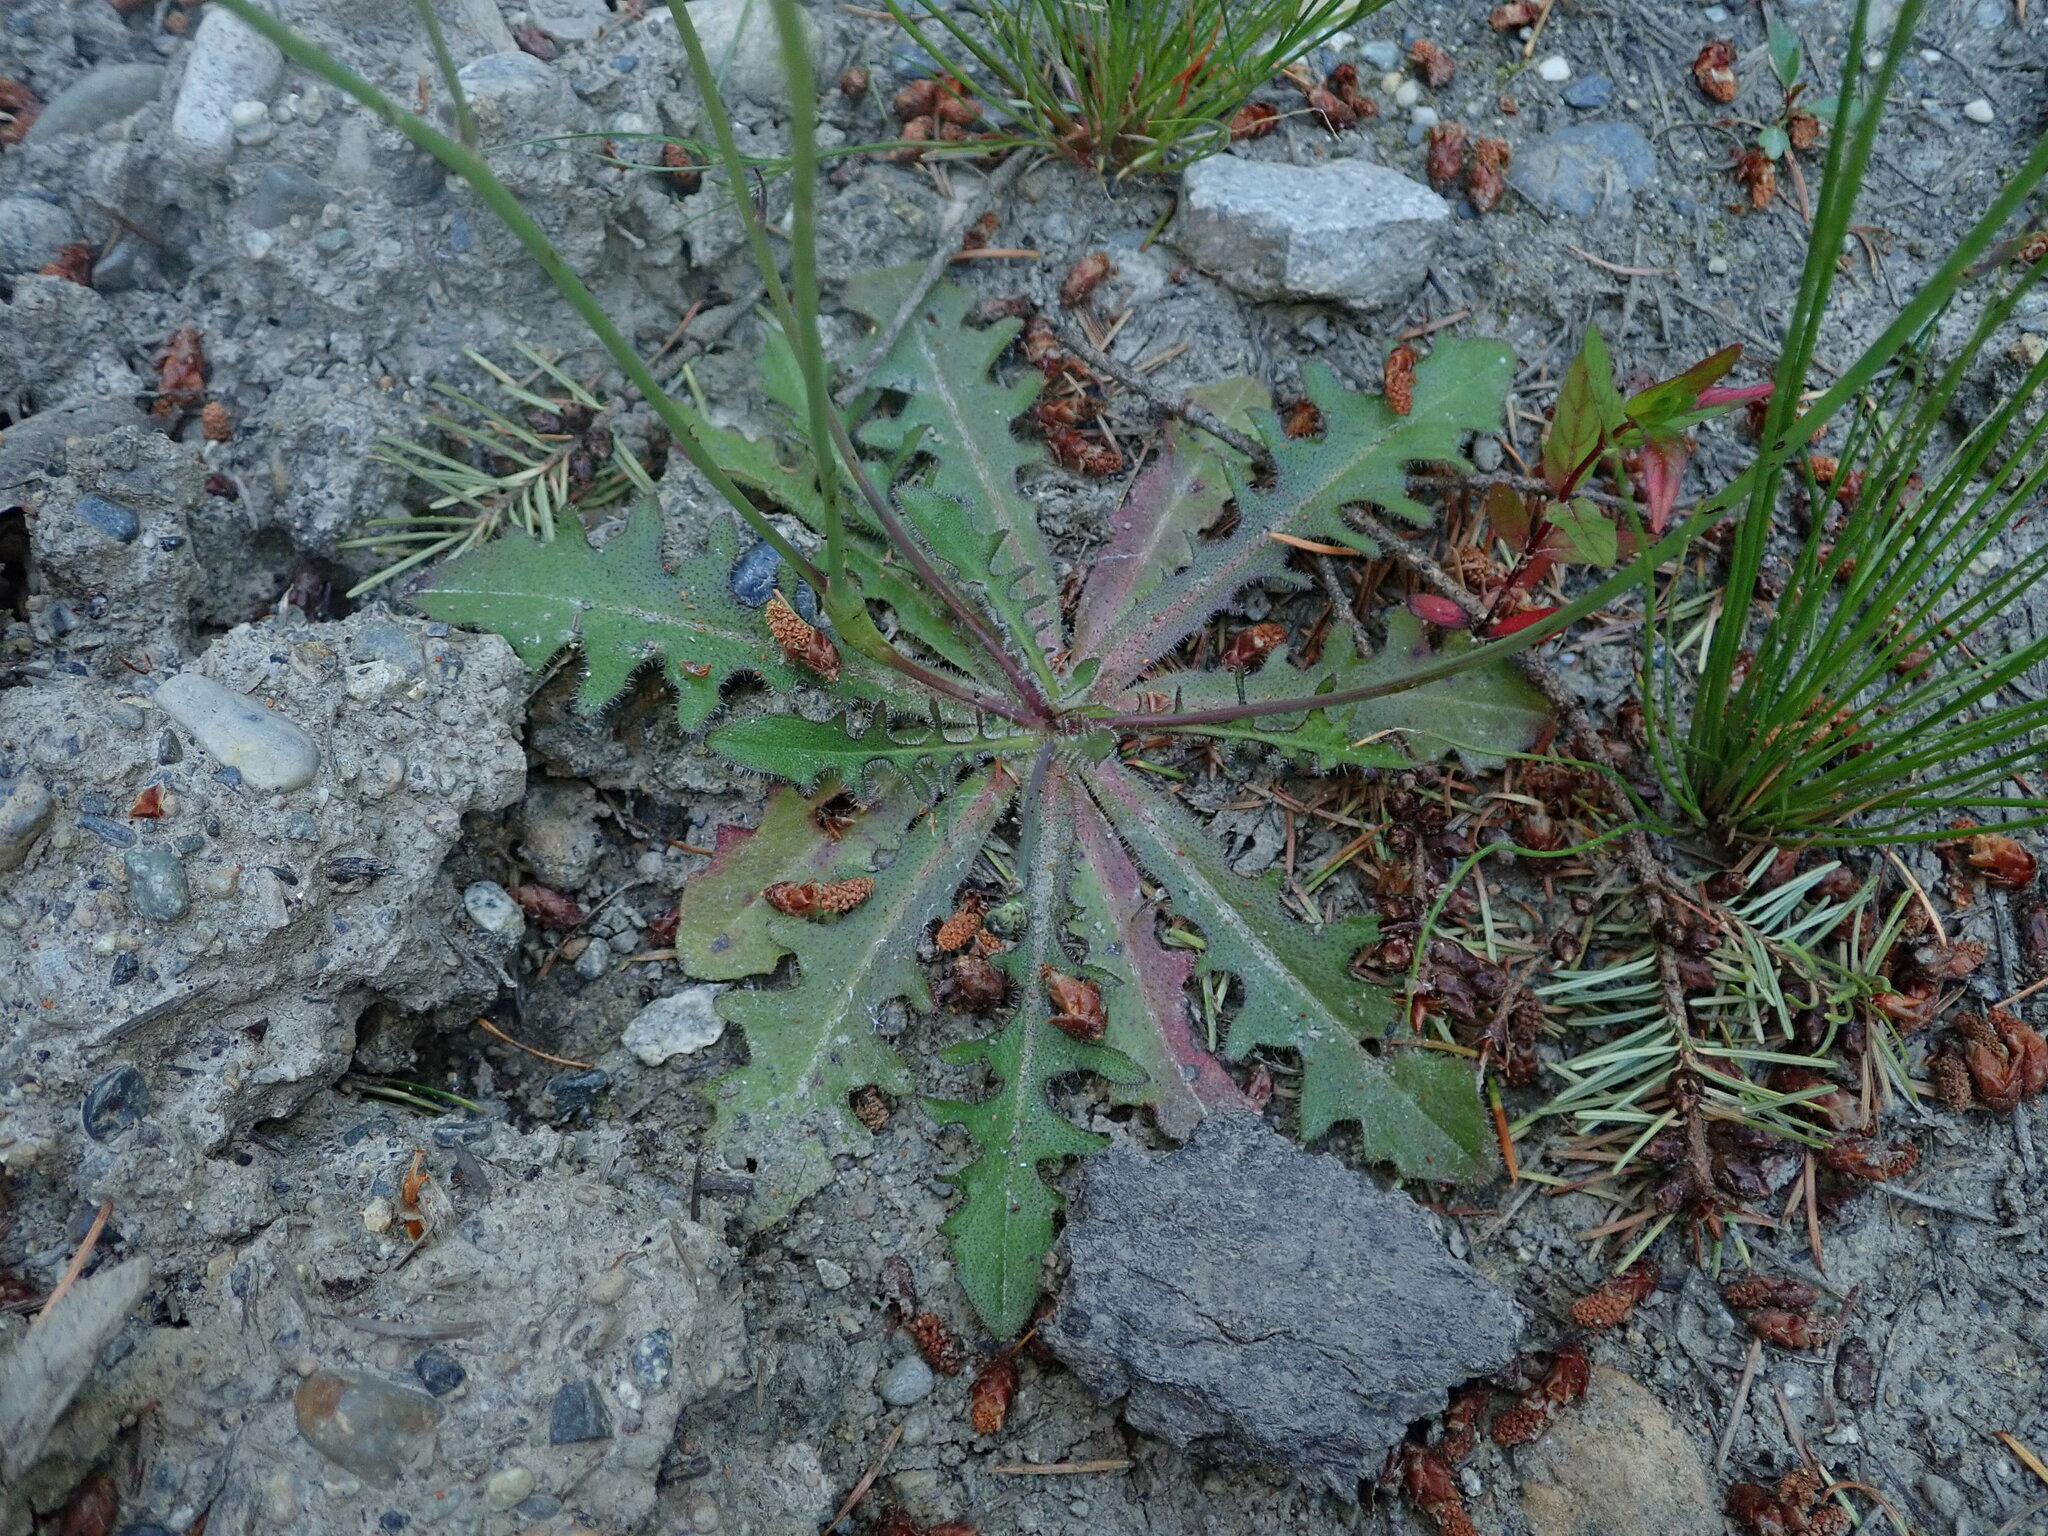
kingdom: Plantae
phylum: Tracheophyta
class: Magnoliopsida
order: Asterales
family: Asteraceae
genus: Hypochaeris
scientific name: Hypochaeris radicata
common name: Flatweed
